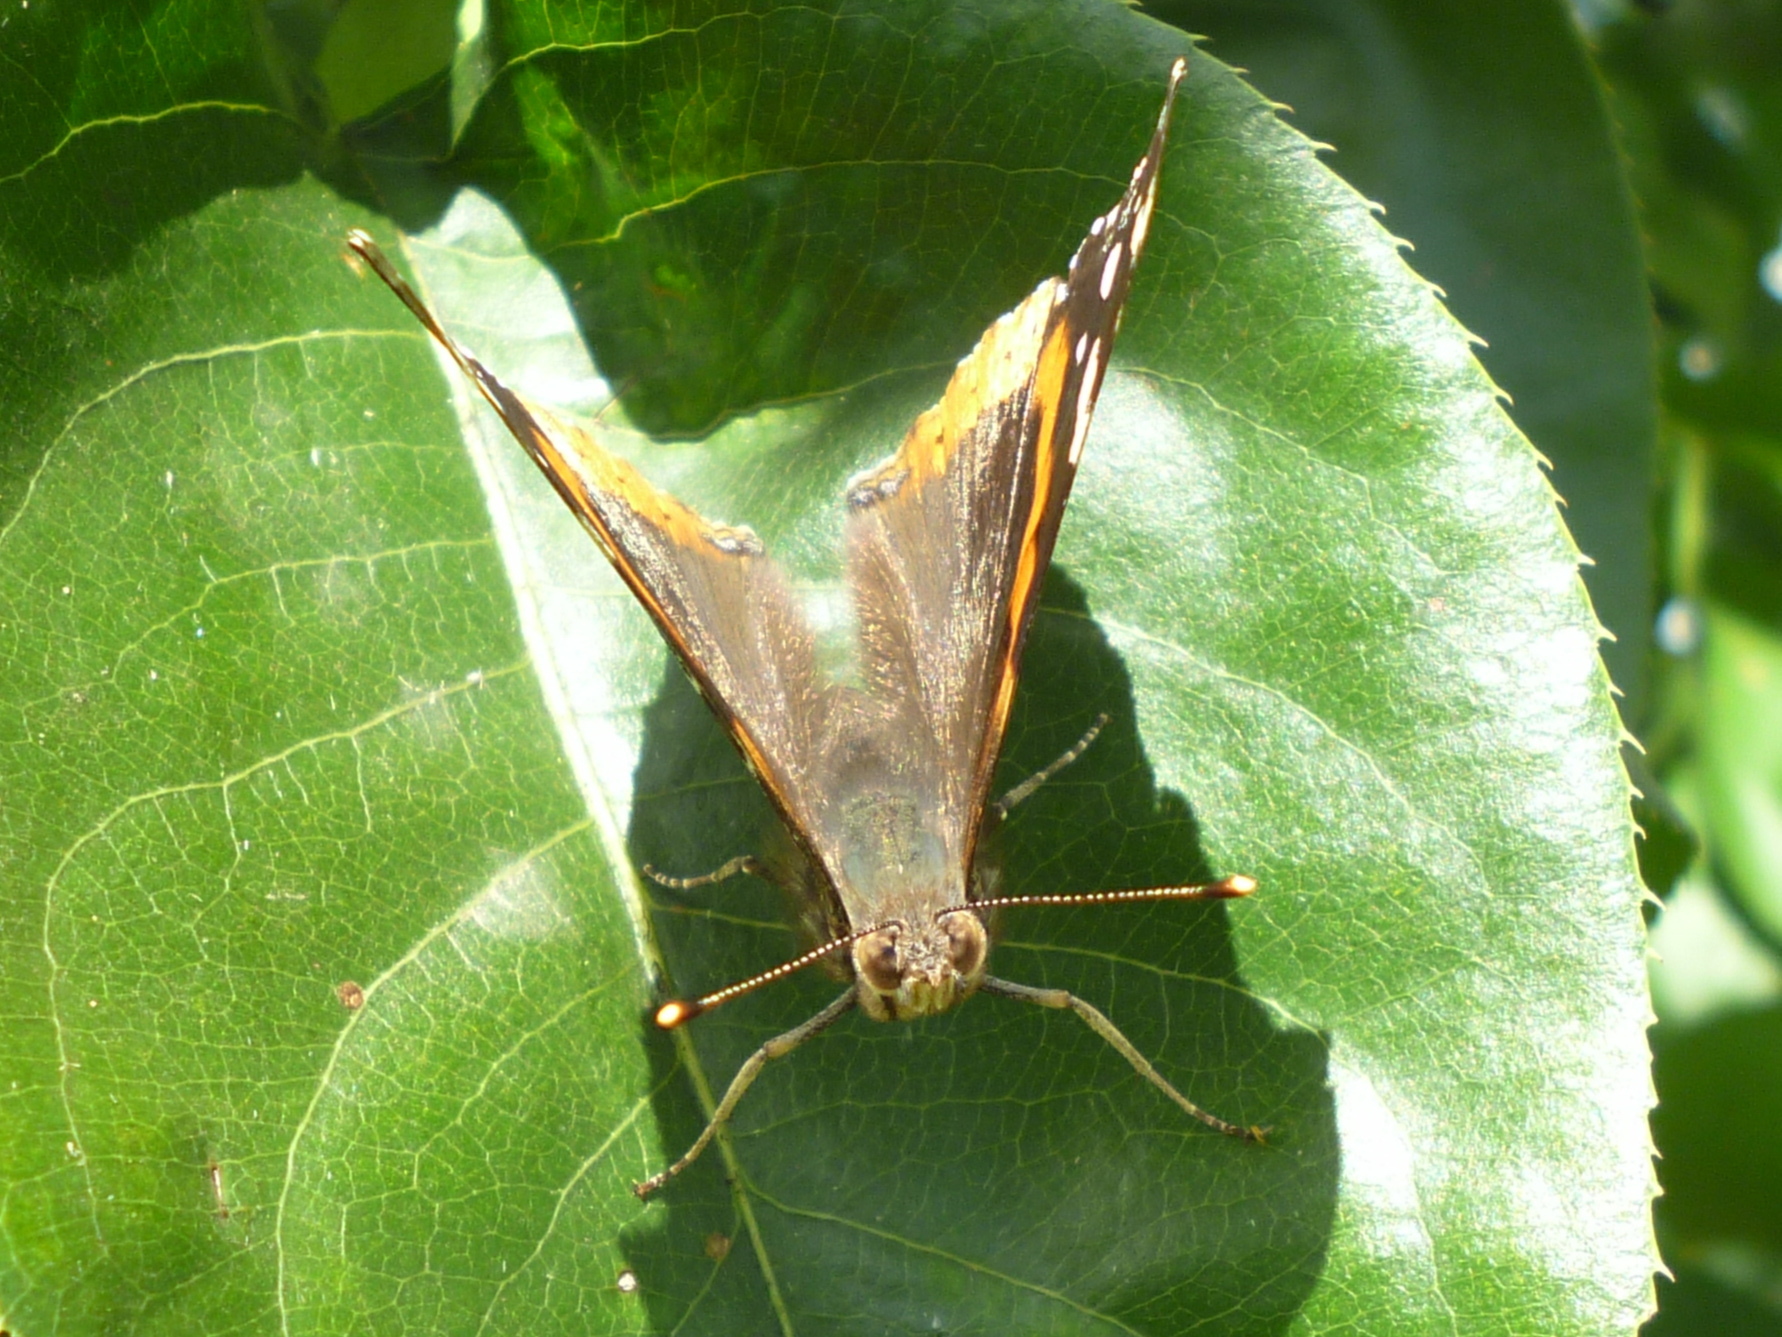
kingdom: Animalia
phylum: Arthropoda
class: Insecta
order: Lepidoptera
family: Nymphalidae
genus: Vanessa
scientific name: Vanessa atalanta
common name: Red admiral
